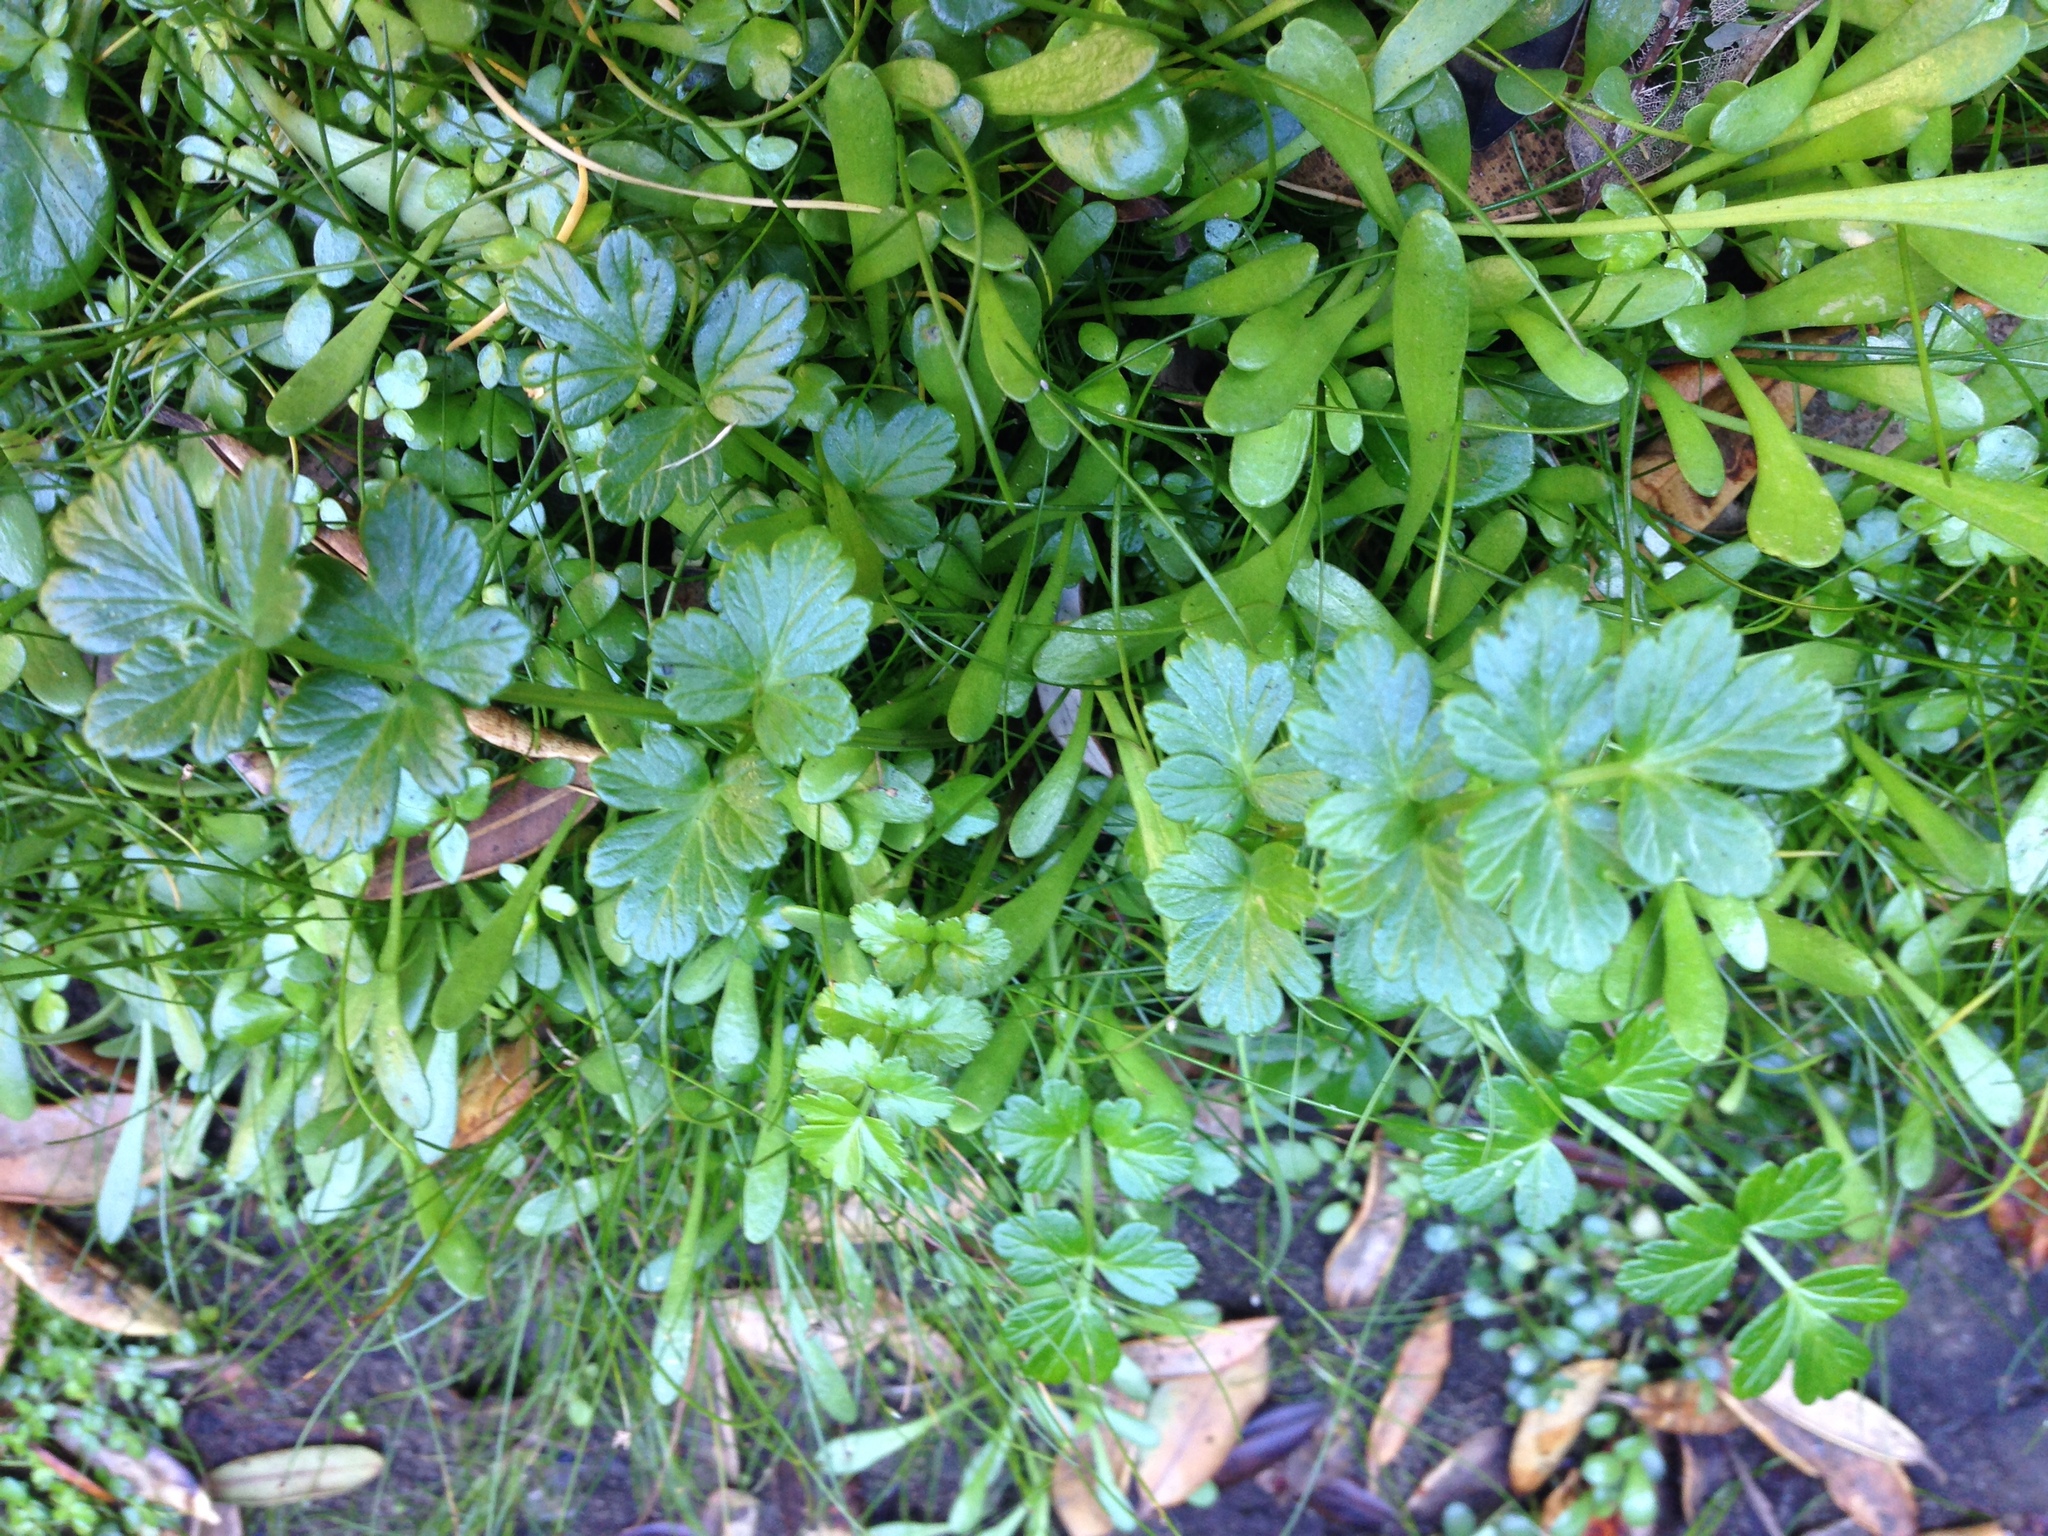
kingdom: Plantae
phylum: Tracheophyta
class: Magnoliopsida
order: Apiales
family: Apiaceae
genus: Apium
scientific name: Apium prostratum
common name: Prostrate marshwort
